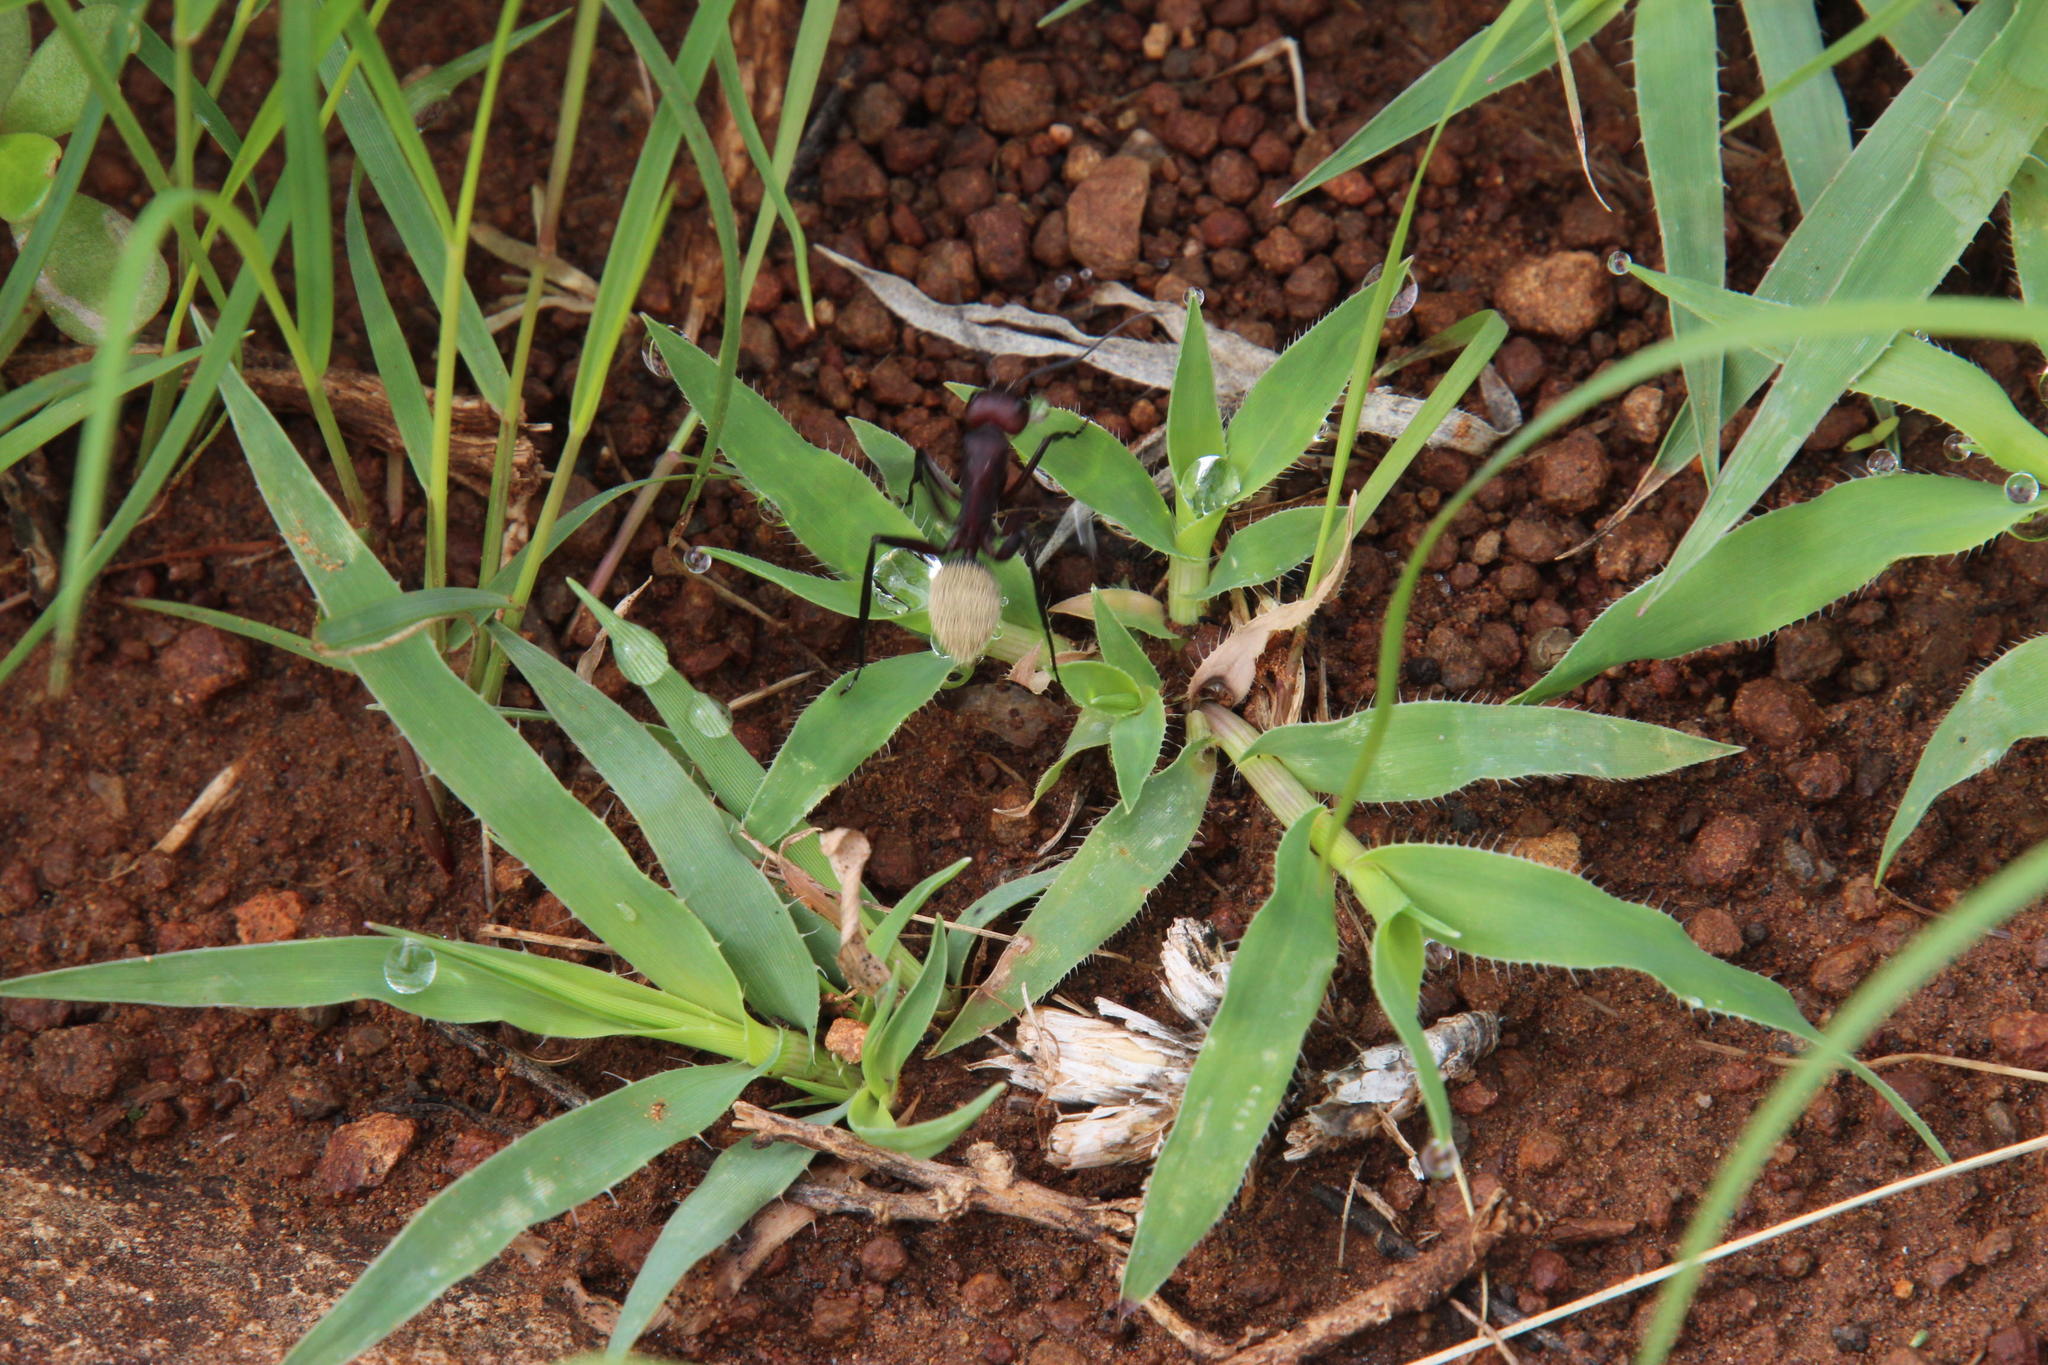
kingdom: Plantae
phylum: Tracheophyta
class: Liliopsida
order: Poales
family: Poaceae
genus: Tragus
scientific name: Tragus berteronianus
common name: African bur-grass
